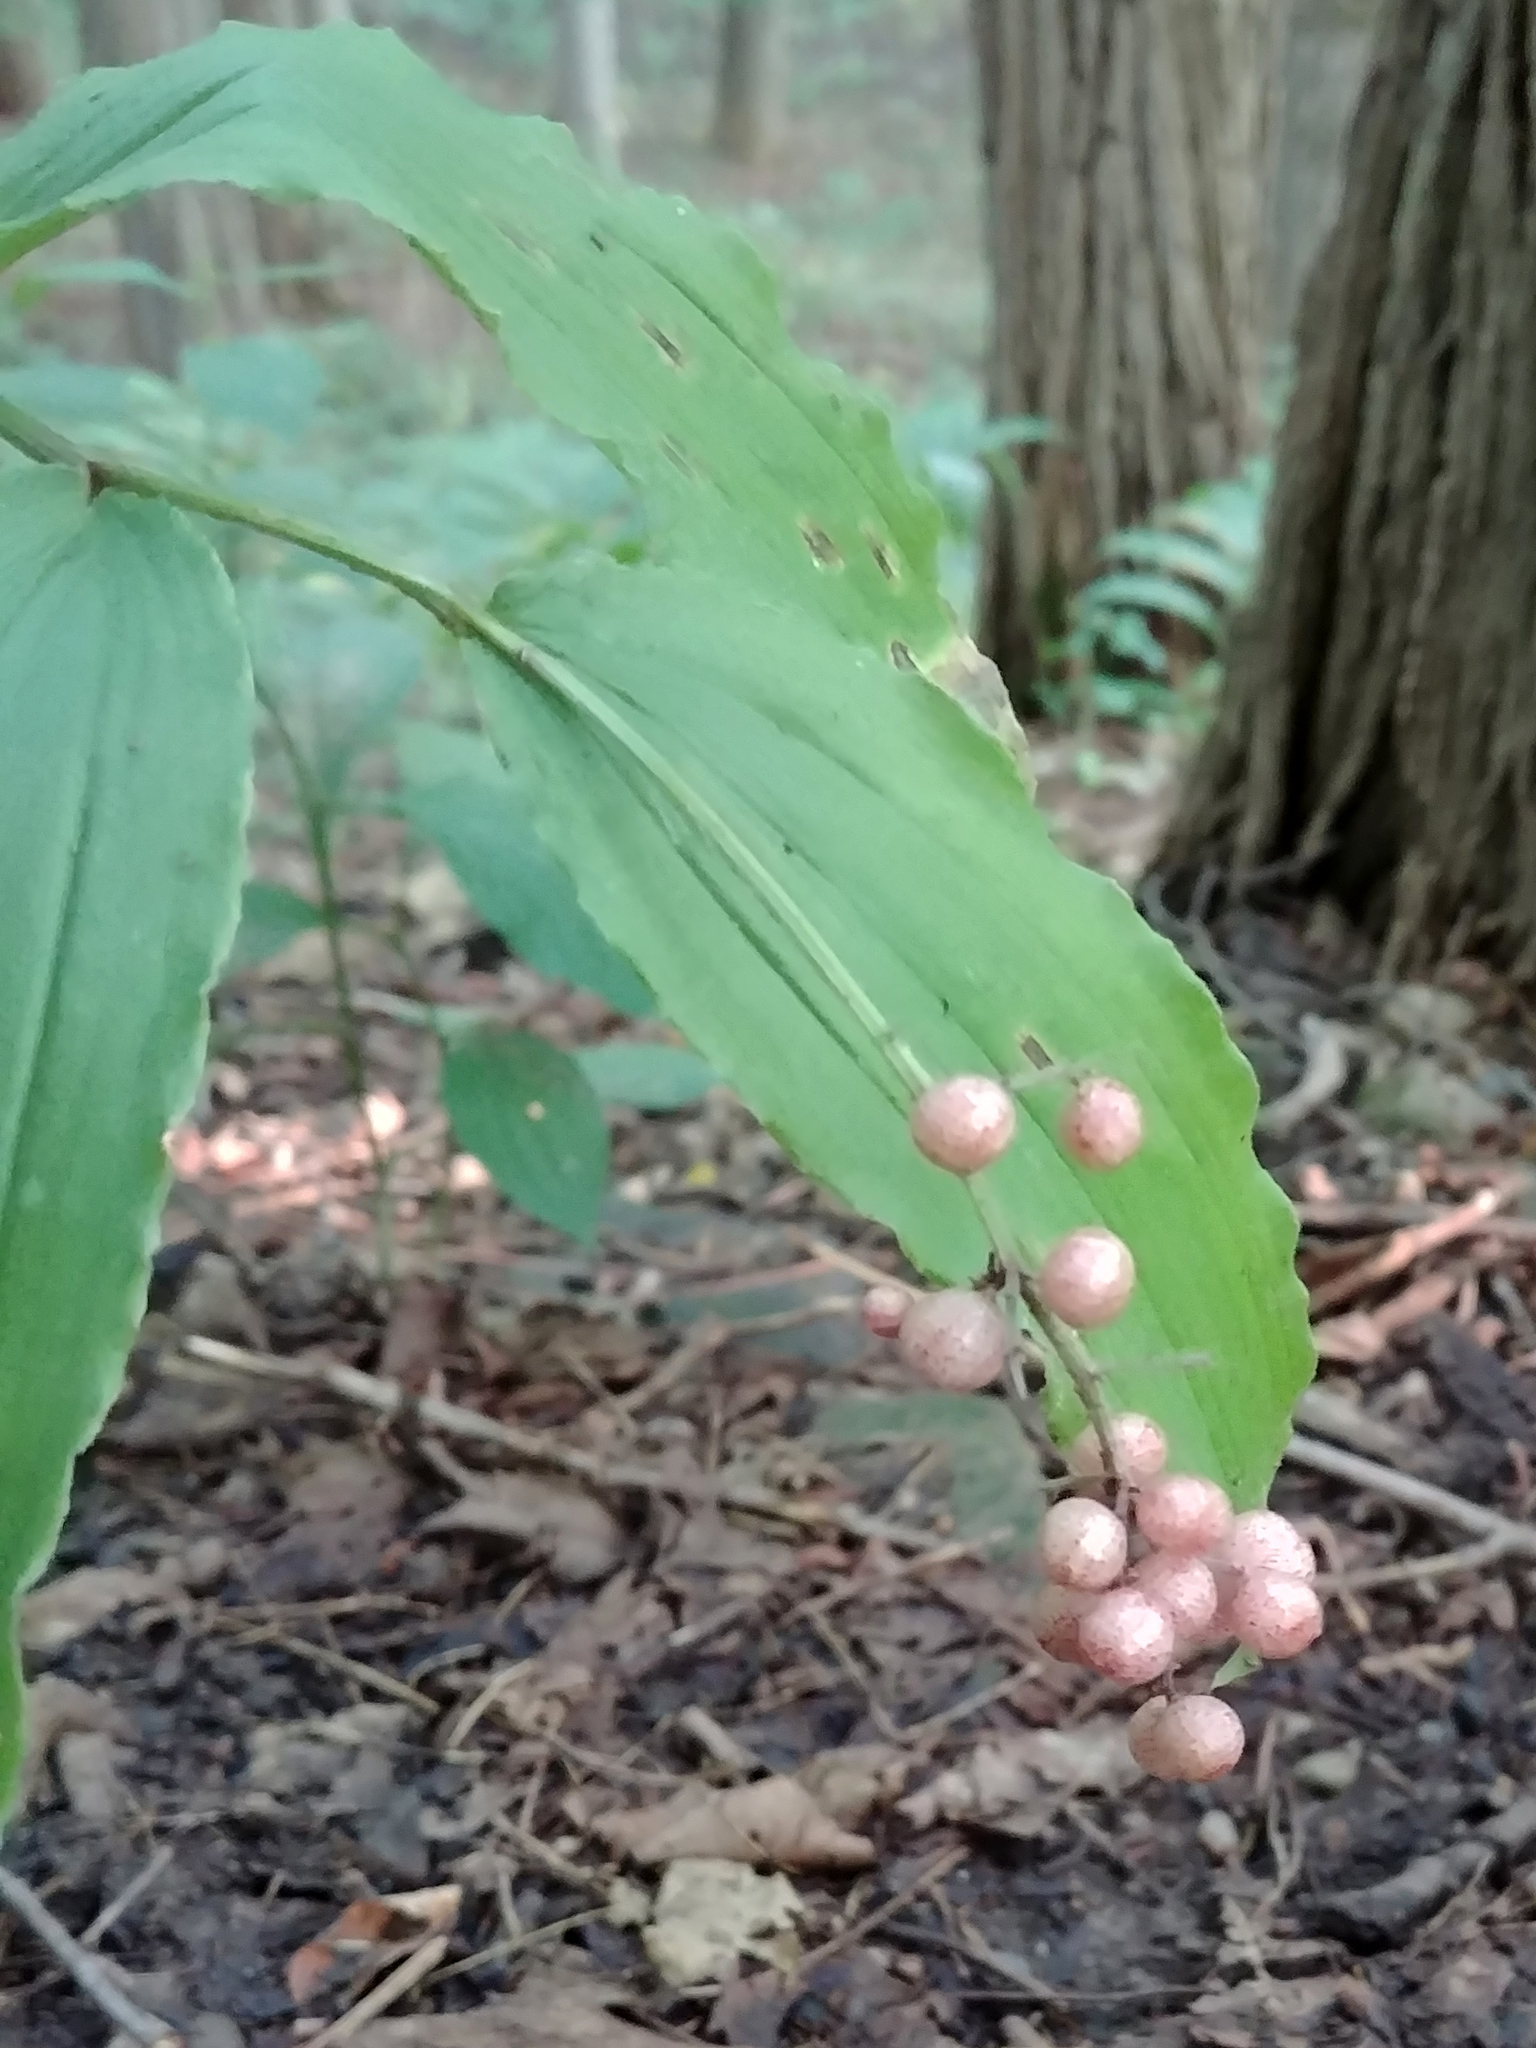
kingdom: Plantae
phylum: Tracheophyta
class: Liliopsida
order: Asparagales
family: Asparagaceae
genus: Maianthemum
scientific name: Maianthemum racemosum
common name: False spikenard
